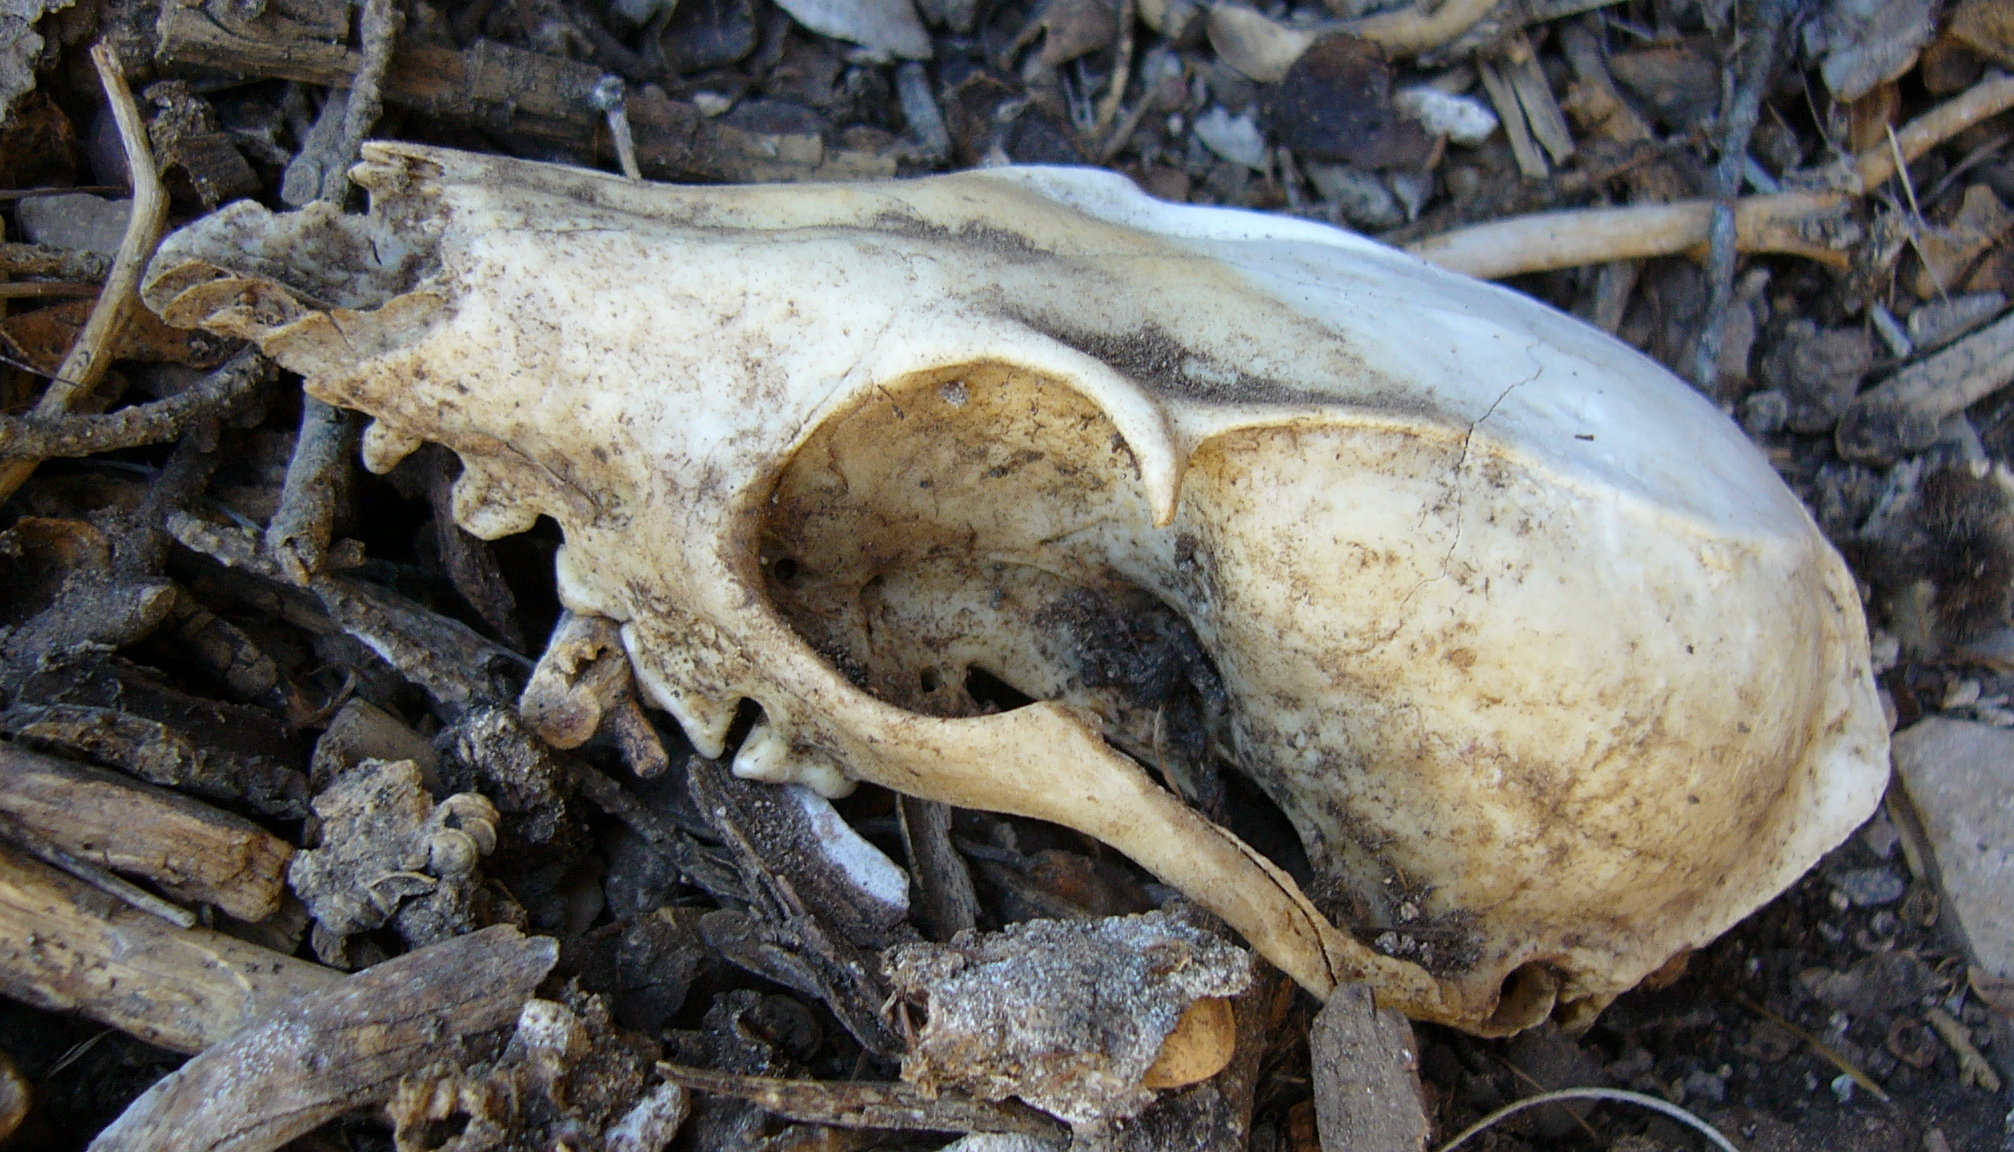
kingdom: Animalia
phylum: Chordata
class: Mammalia
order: Carnivora
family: Canidae
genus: Urocyon
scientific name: Urocyon cinereoargenteus
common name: Gray fox
